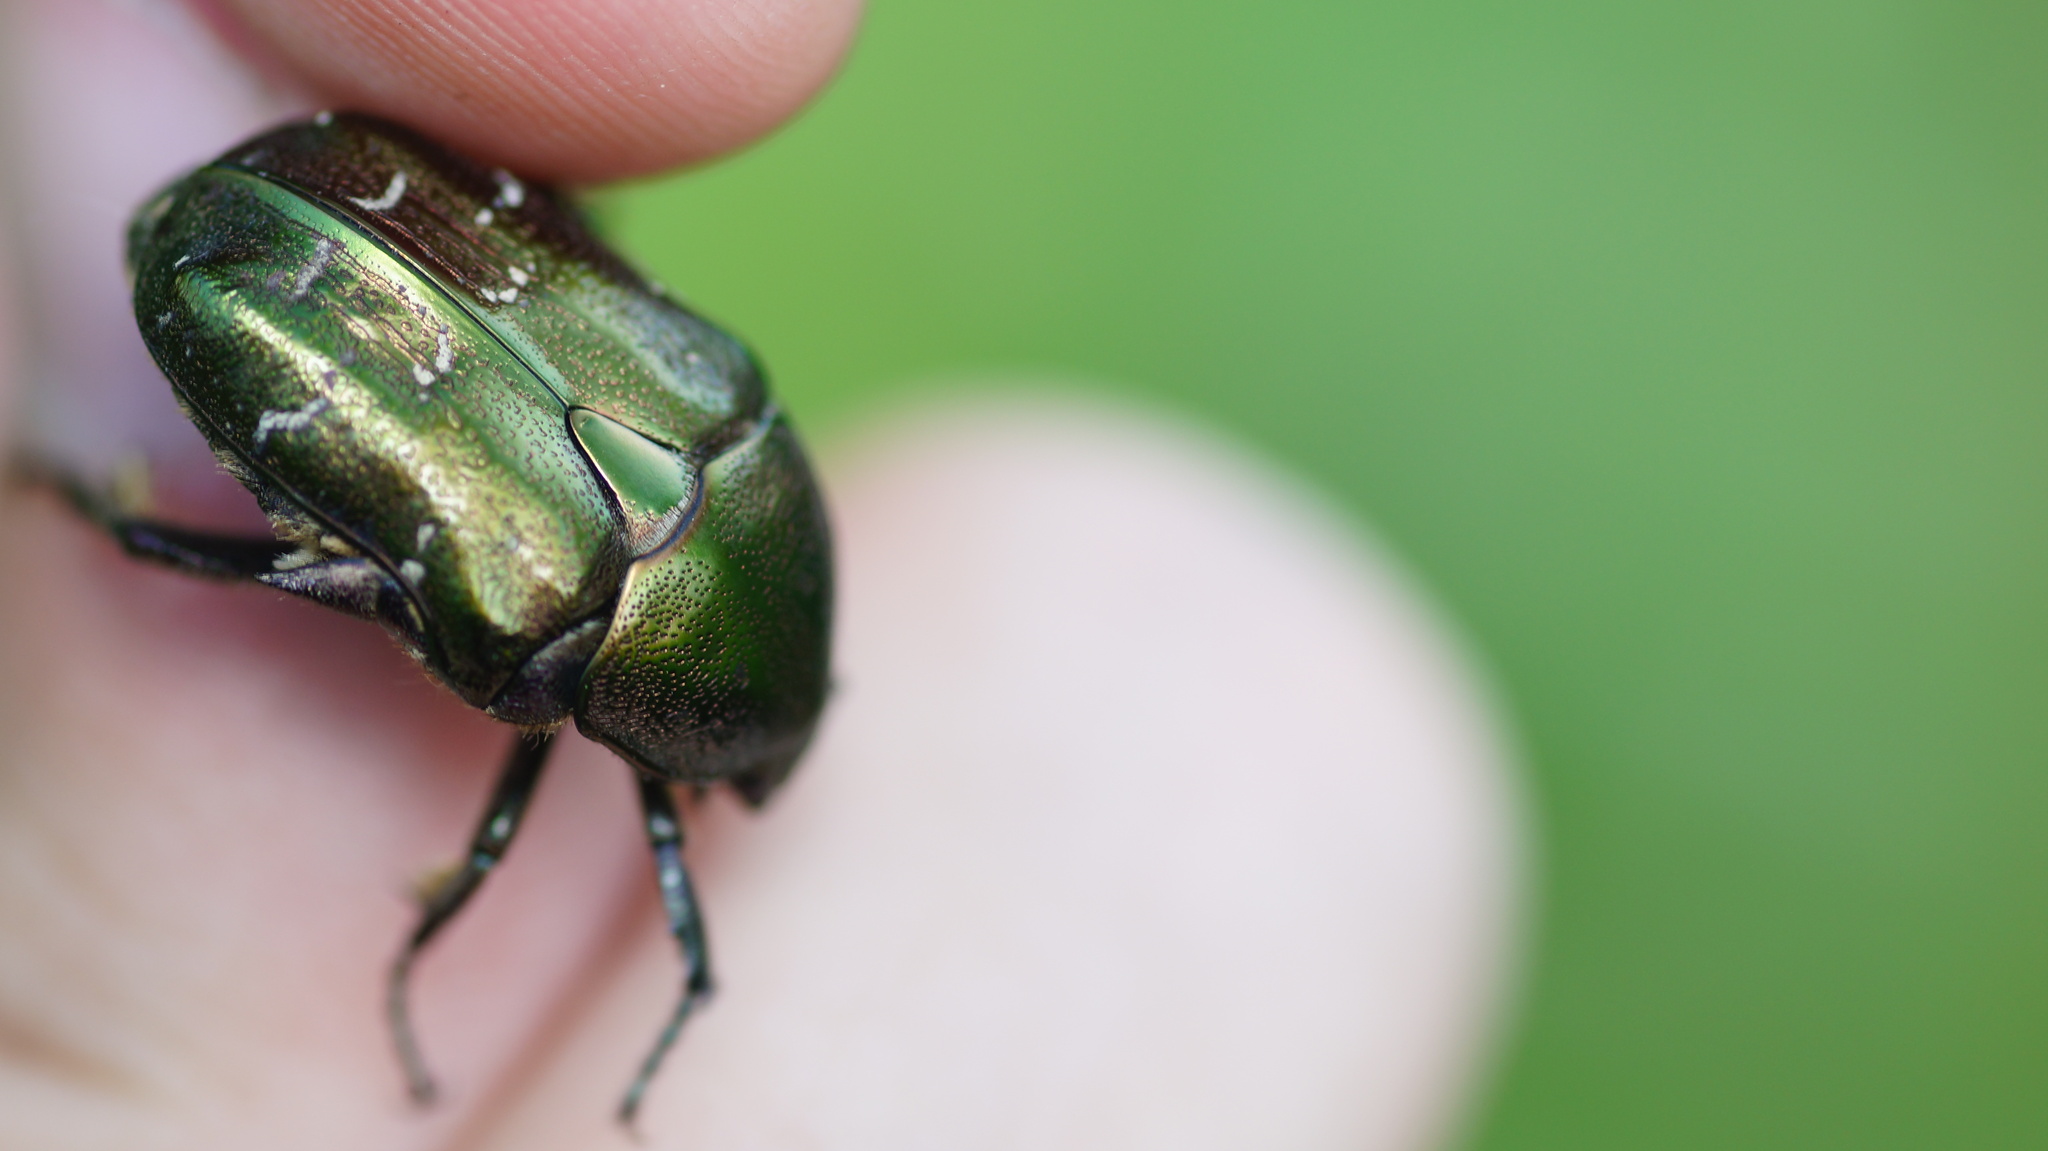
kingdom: Animalia
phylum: Arthropoda
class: Insecta
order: Coleoptera
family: Scarabaeidae
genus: Protaetia
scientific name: Protaetia cuprea
